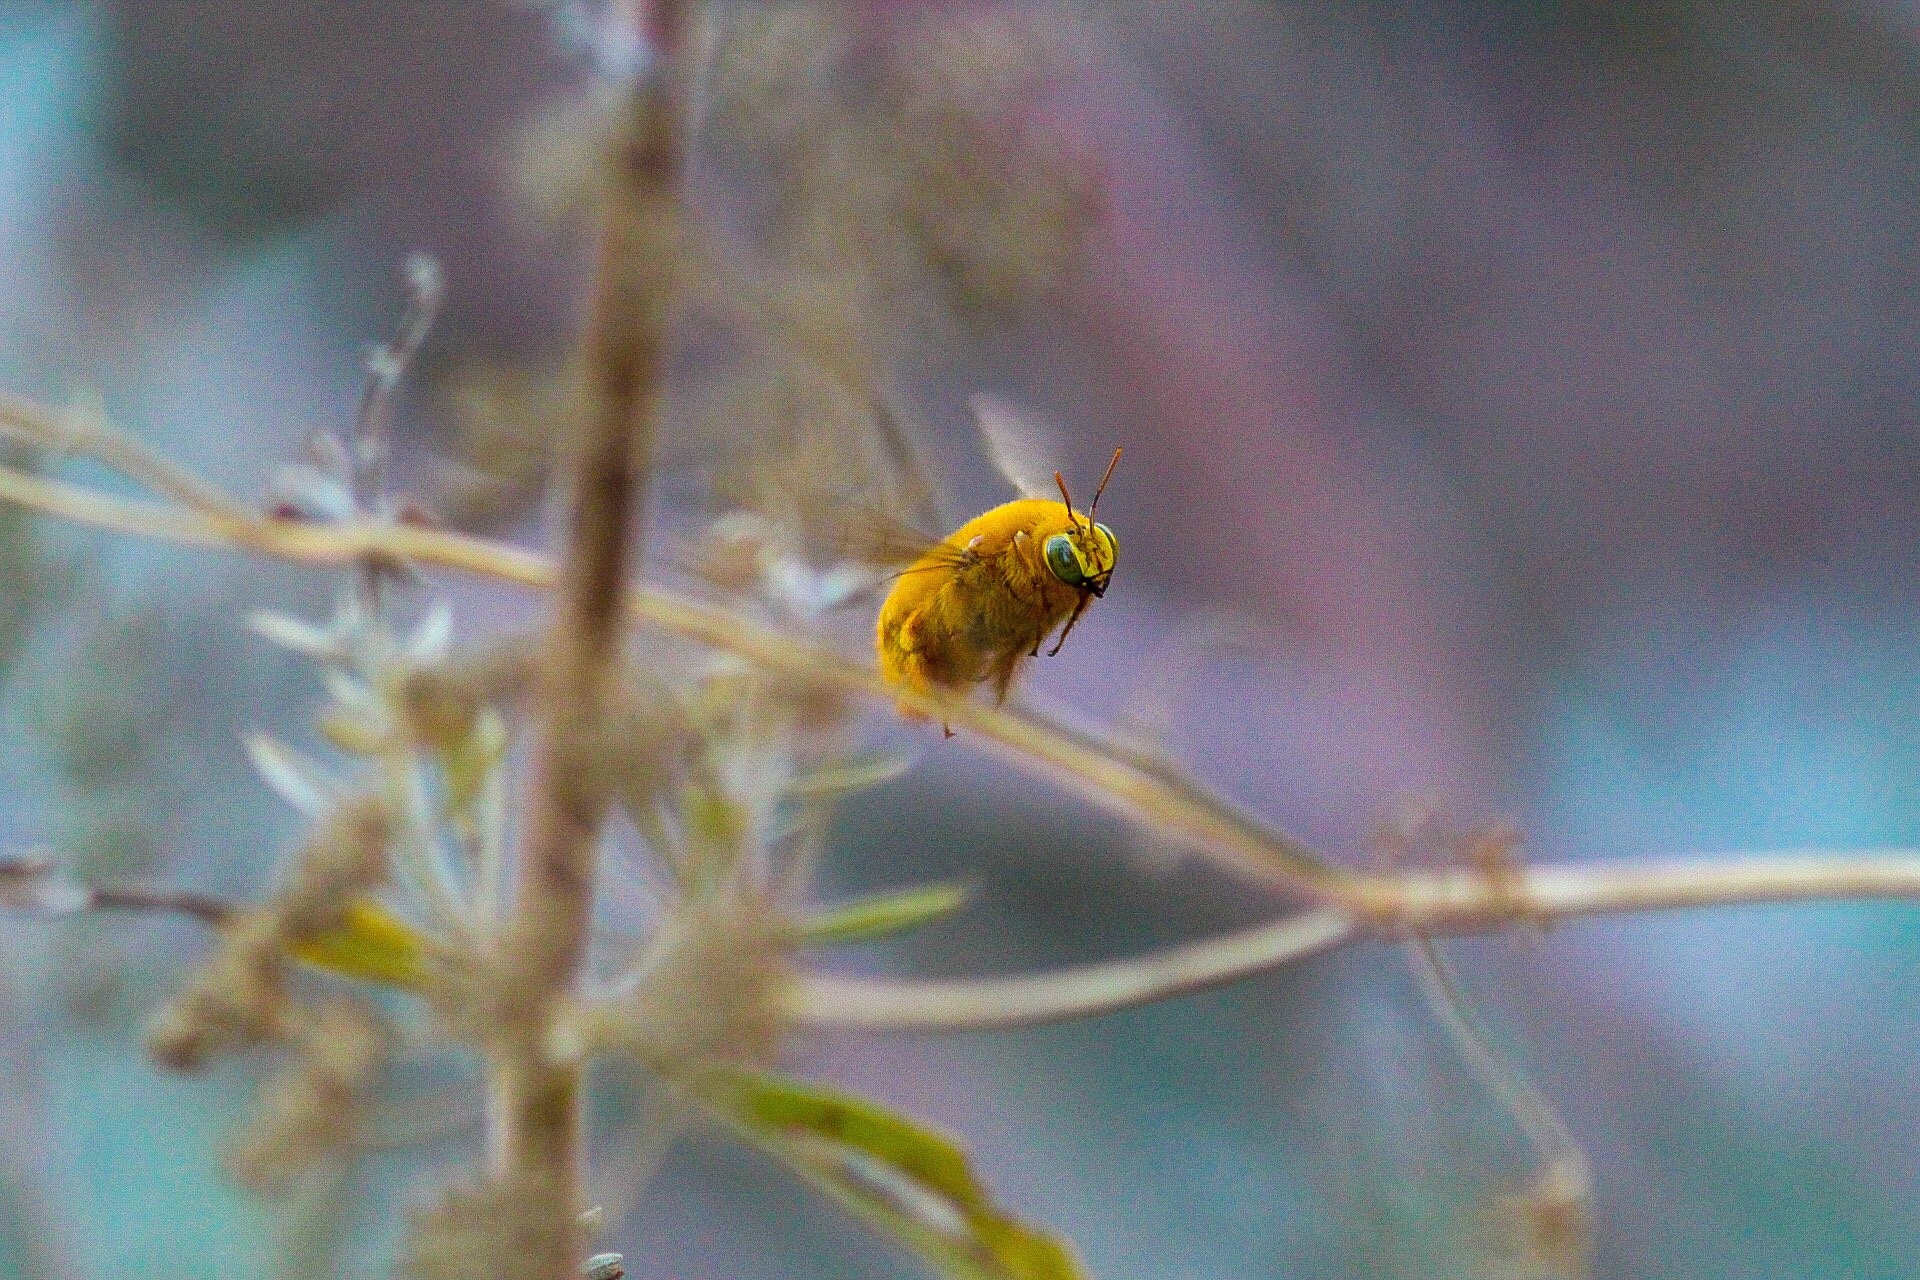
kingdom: Animalia
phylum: Arthropoda
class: Insecta
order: Hymenoptera
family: Apidae
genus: Xylocopa
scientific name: Xylocopa sonorina
